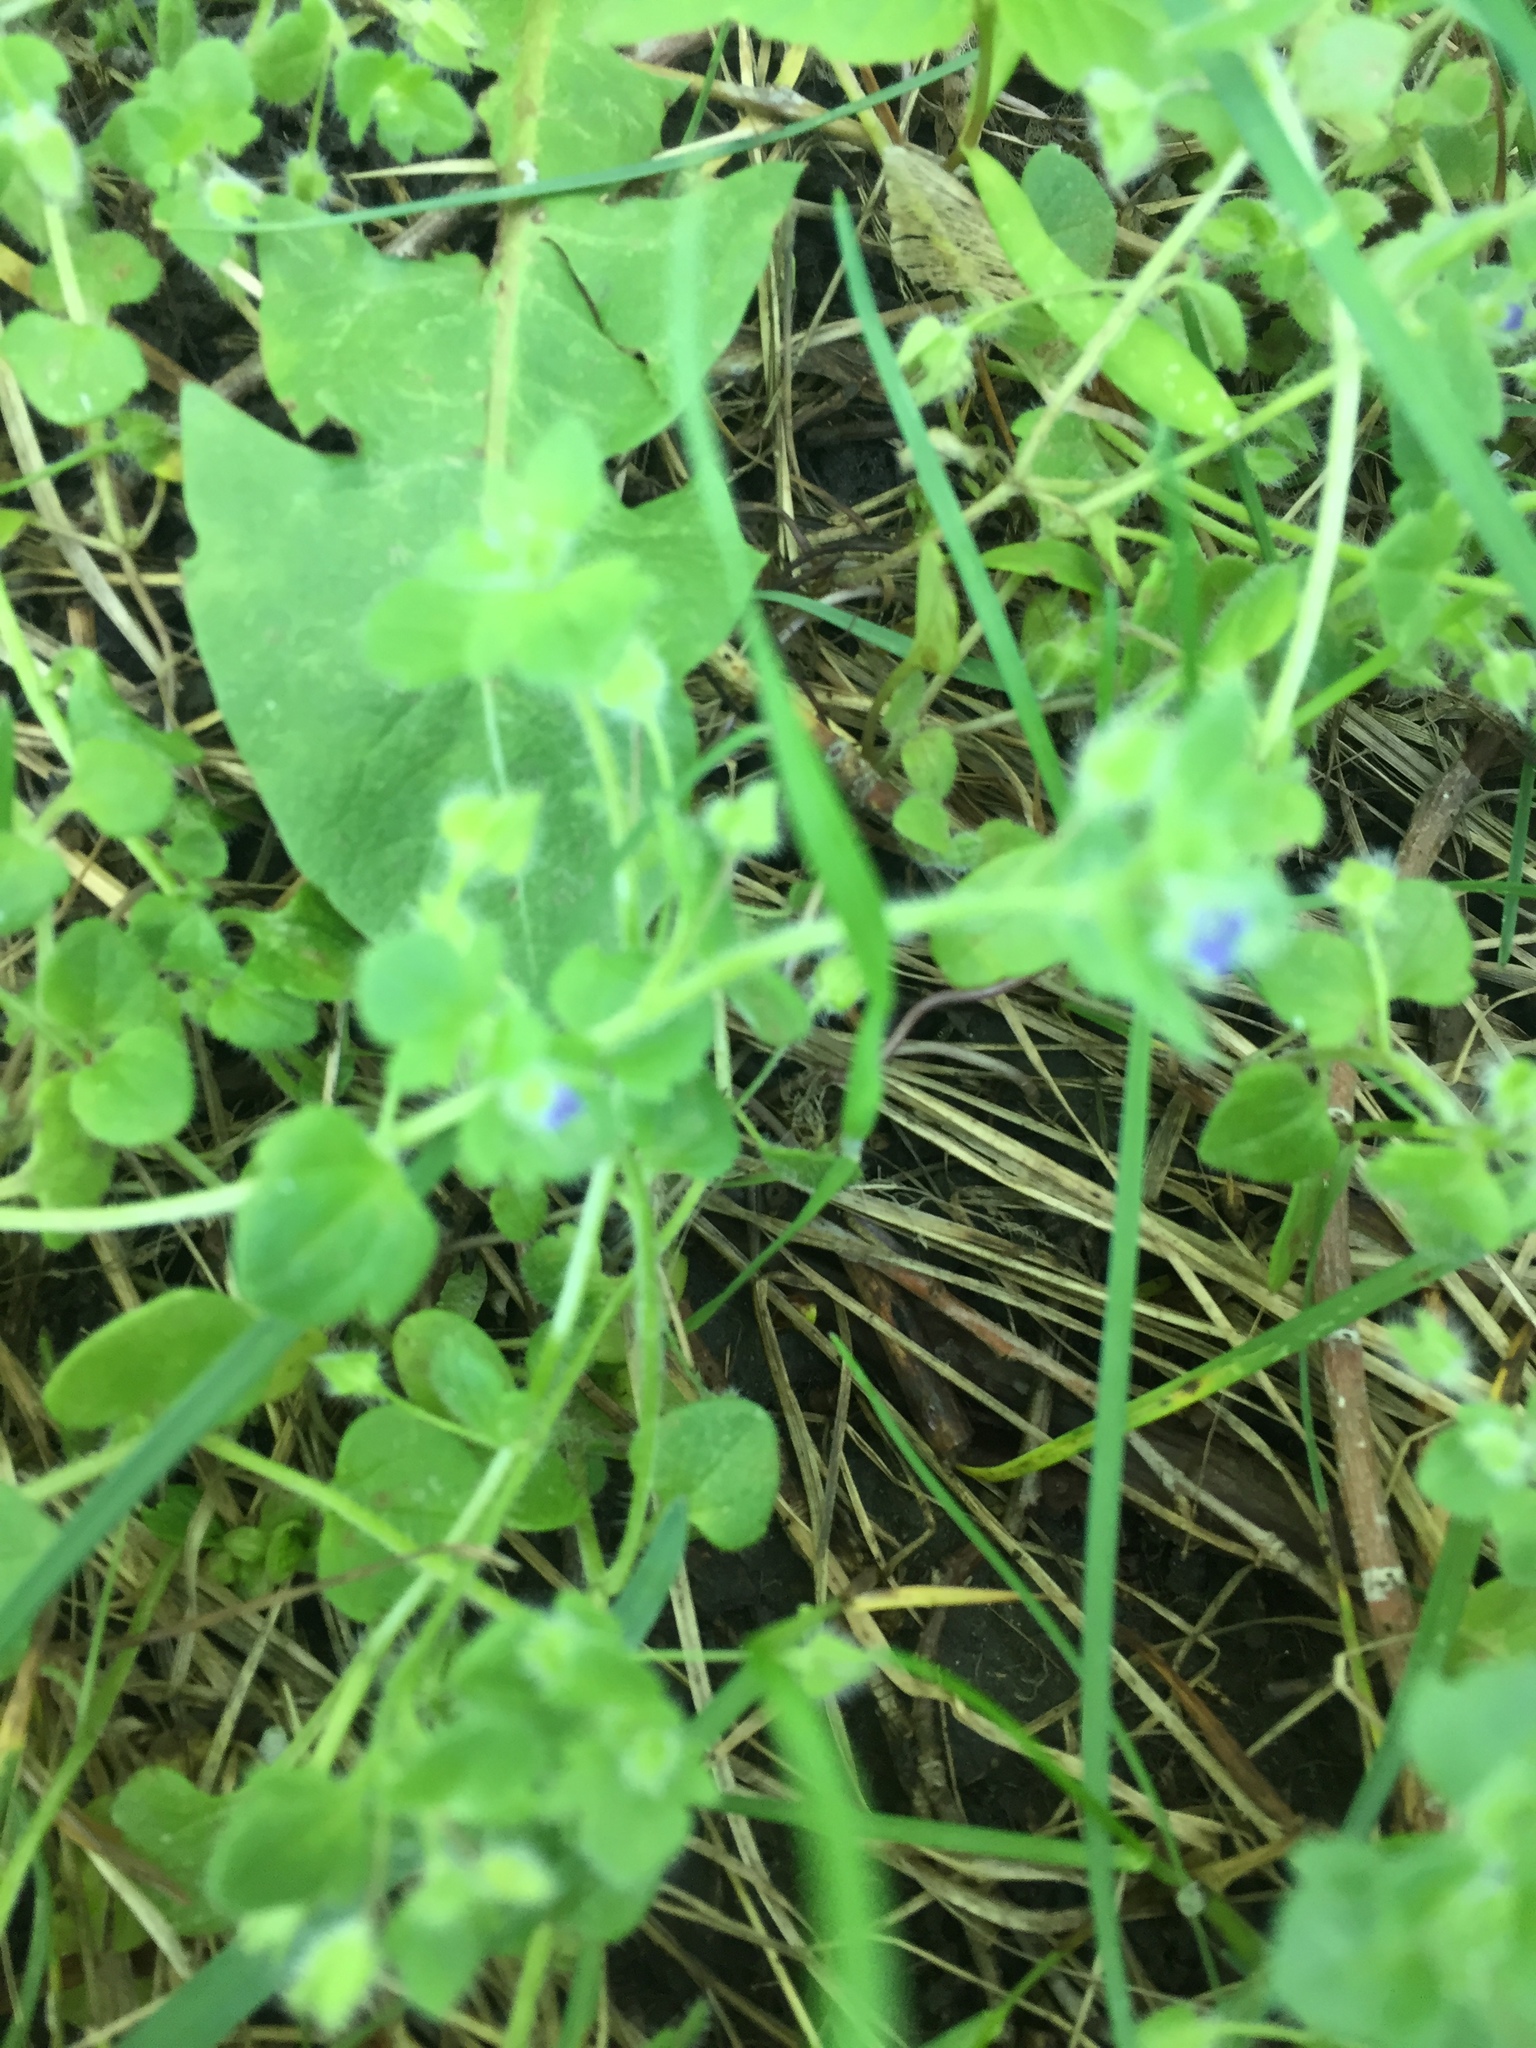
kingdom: Plantae
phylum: Tracheophyta
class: Magnoliopsida
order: Lamiales
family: Plantaginaceae
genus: Veronica
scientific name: Veronica hederifolia
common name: Ivy-leaved speedwell
